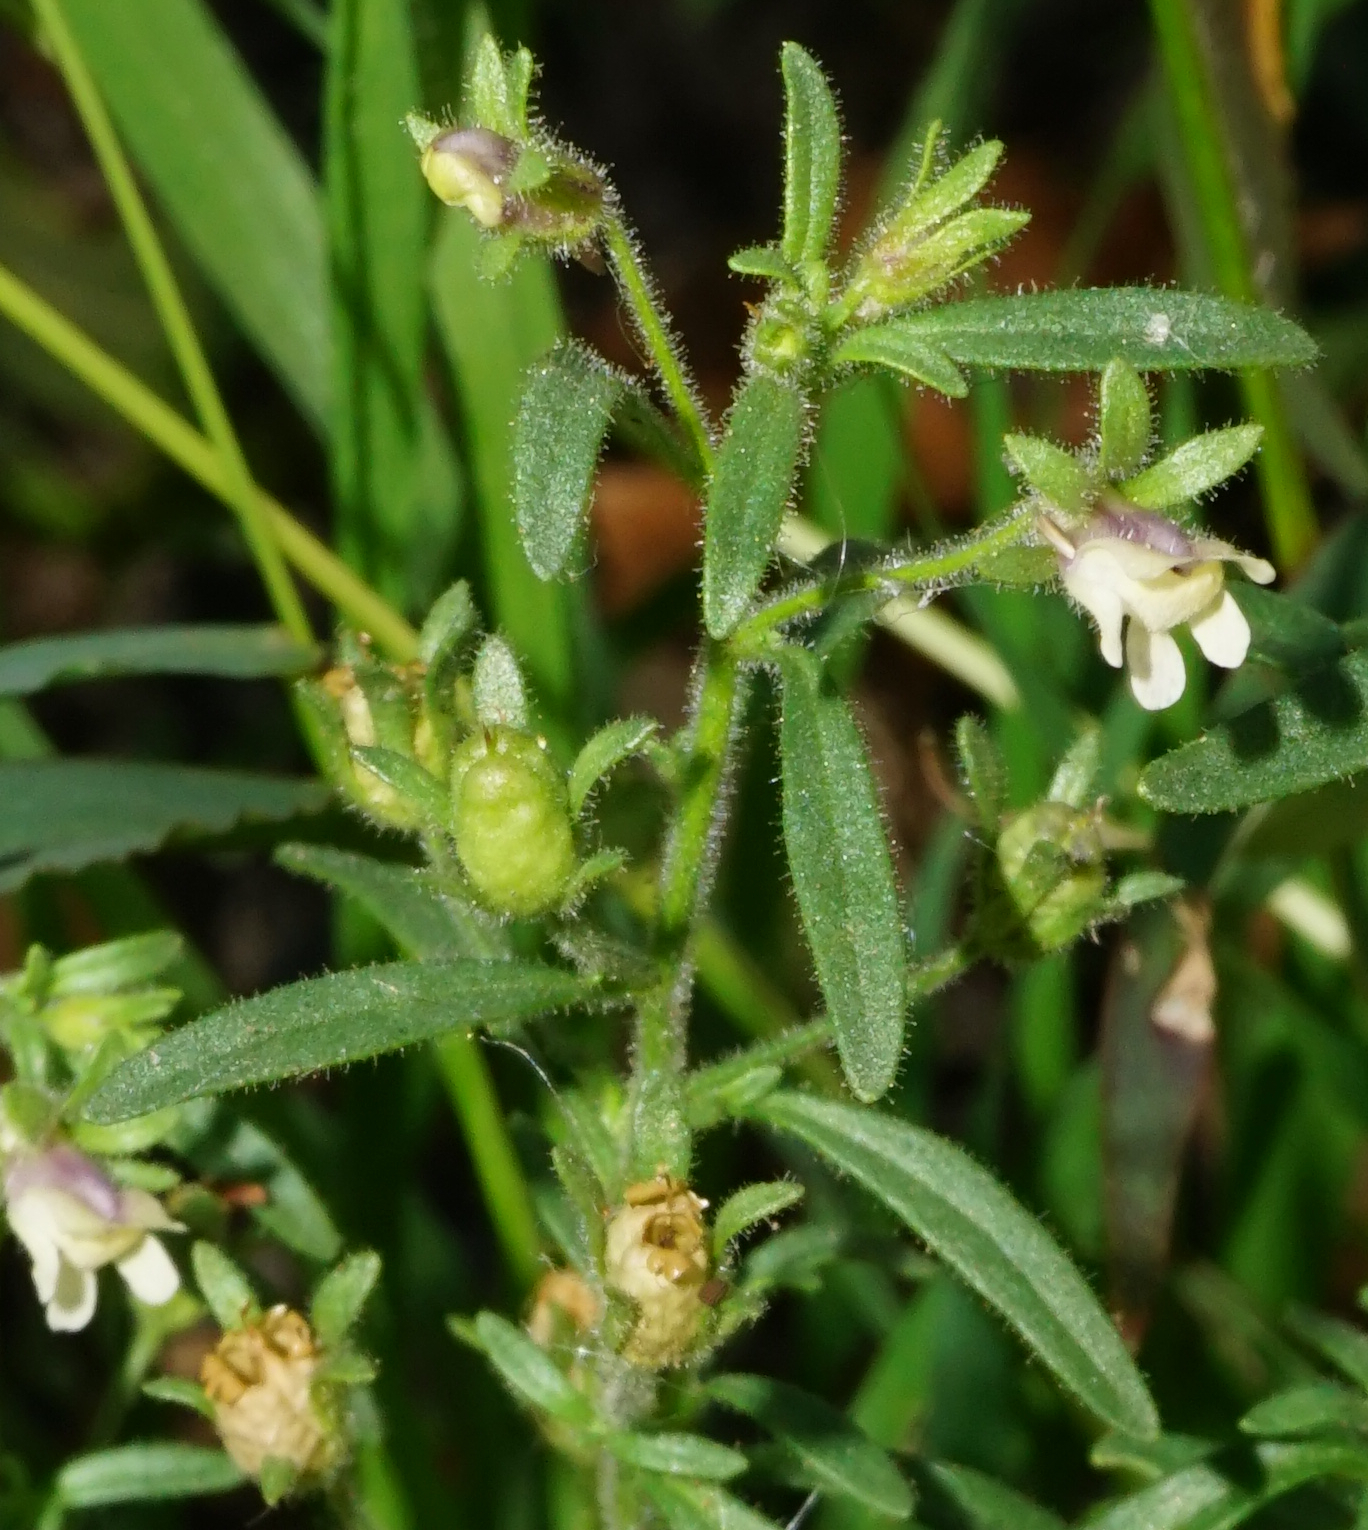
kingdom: Plantae
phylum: Tracheophyta
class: Magnoliopsida
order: Lamiales
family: Plantaginaceae
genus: Chaenorhinum
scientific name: Chaenorhinum minus
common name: Dwarf snapdragon
